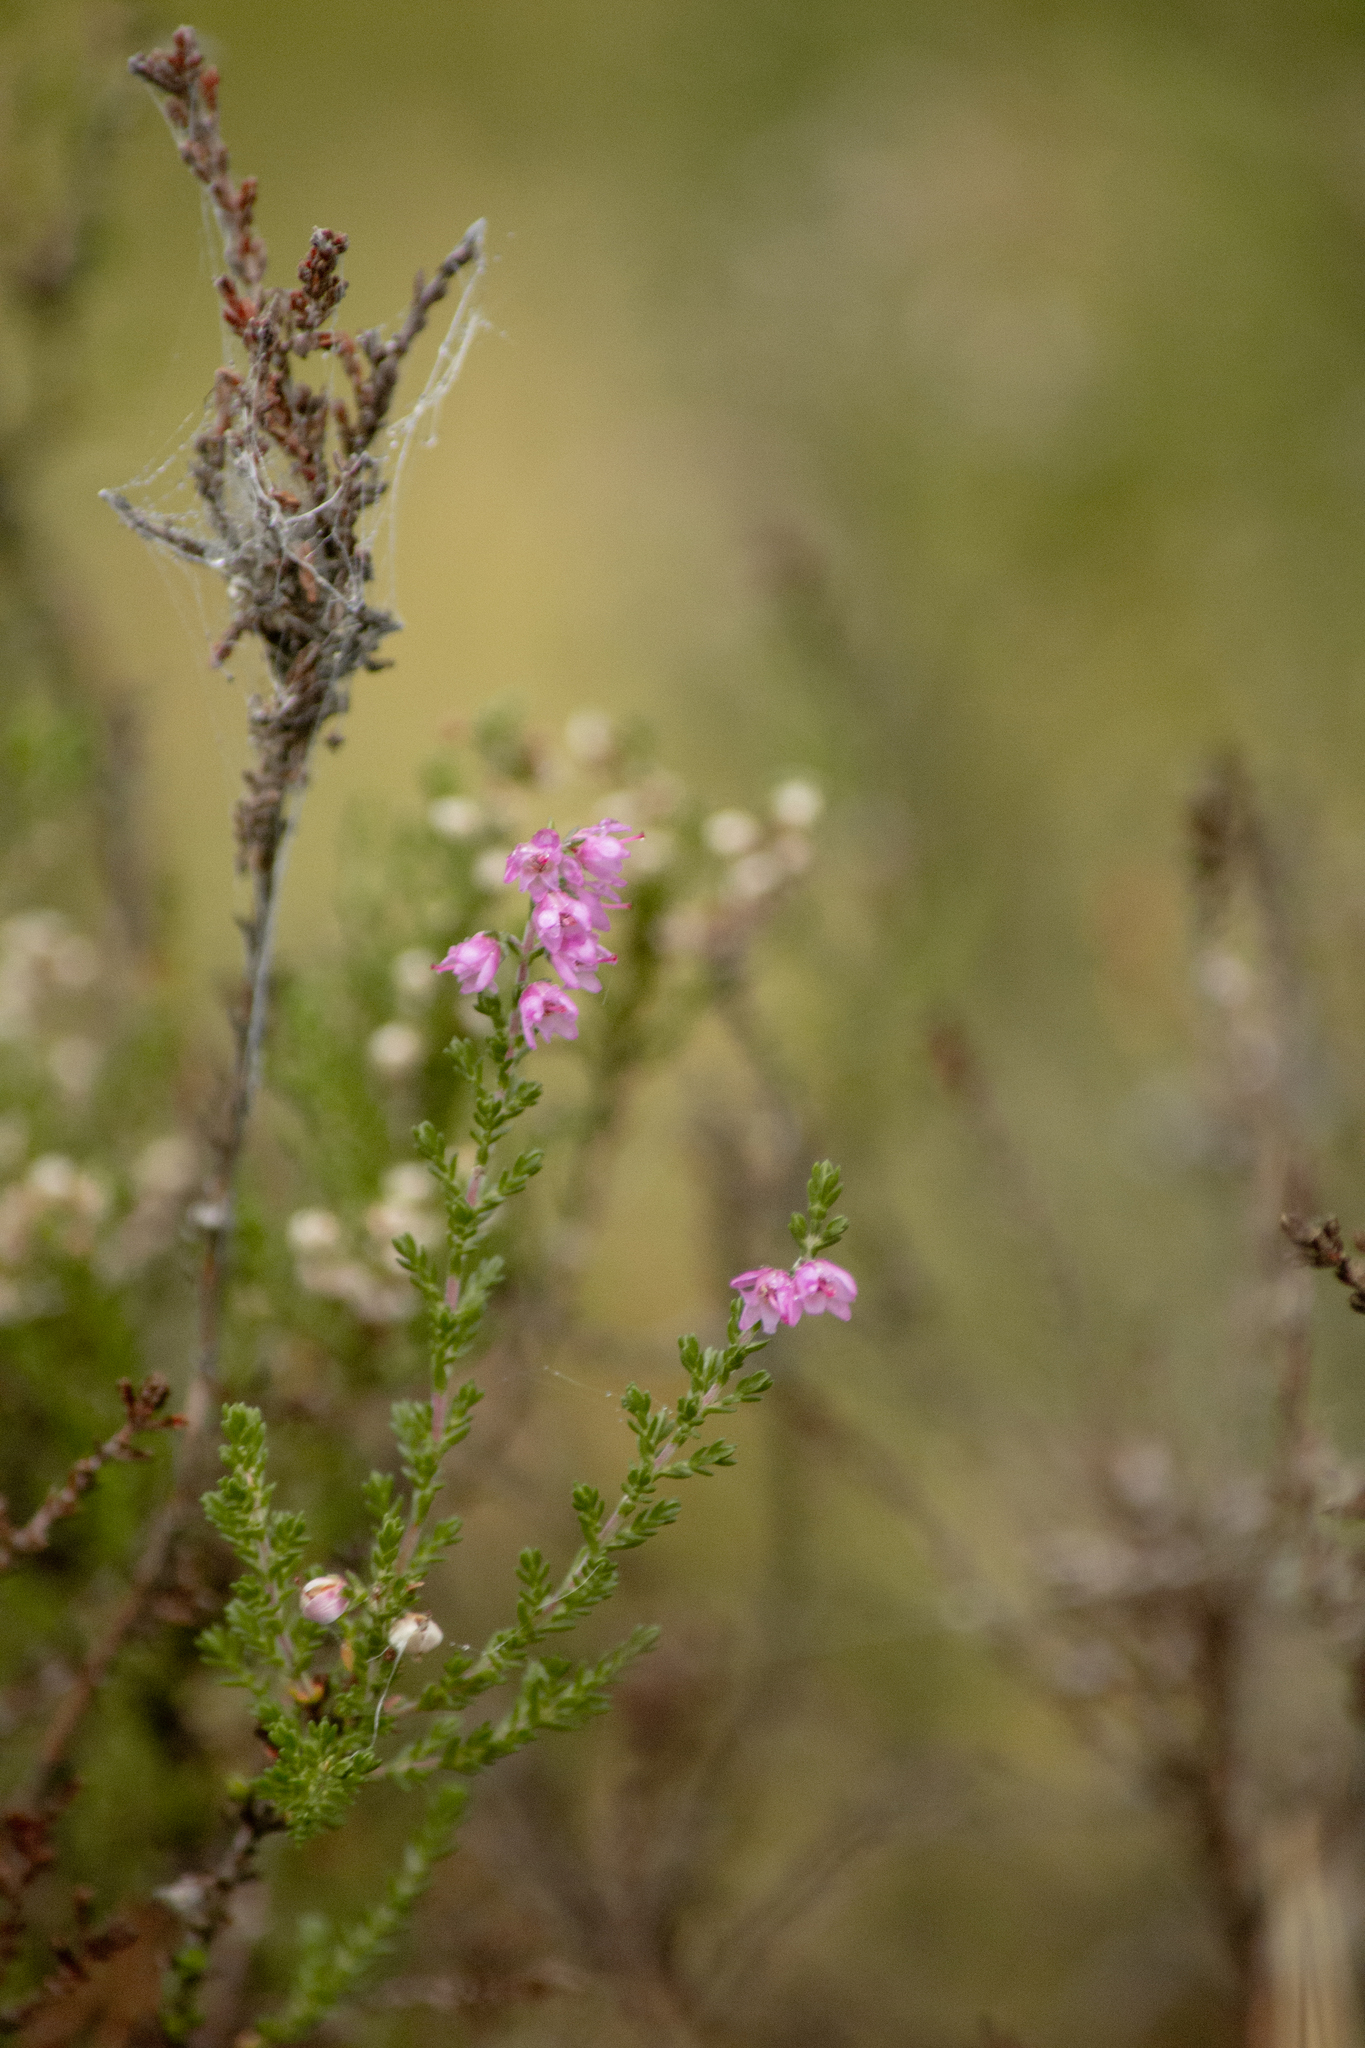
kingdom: Plantae
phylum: Tracheophyta
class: Magnoliopsida
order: Ericales
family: Ericaceae
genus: Calluna
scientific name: Calluna vulgaris
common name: Heather
